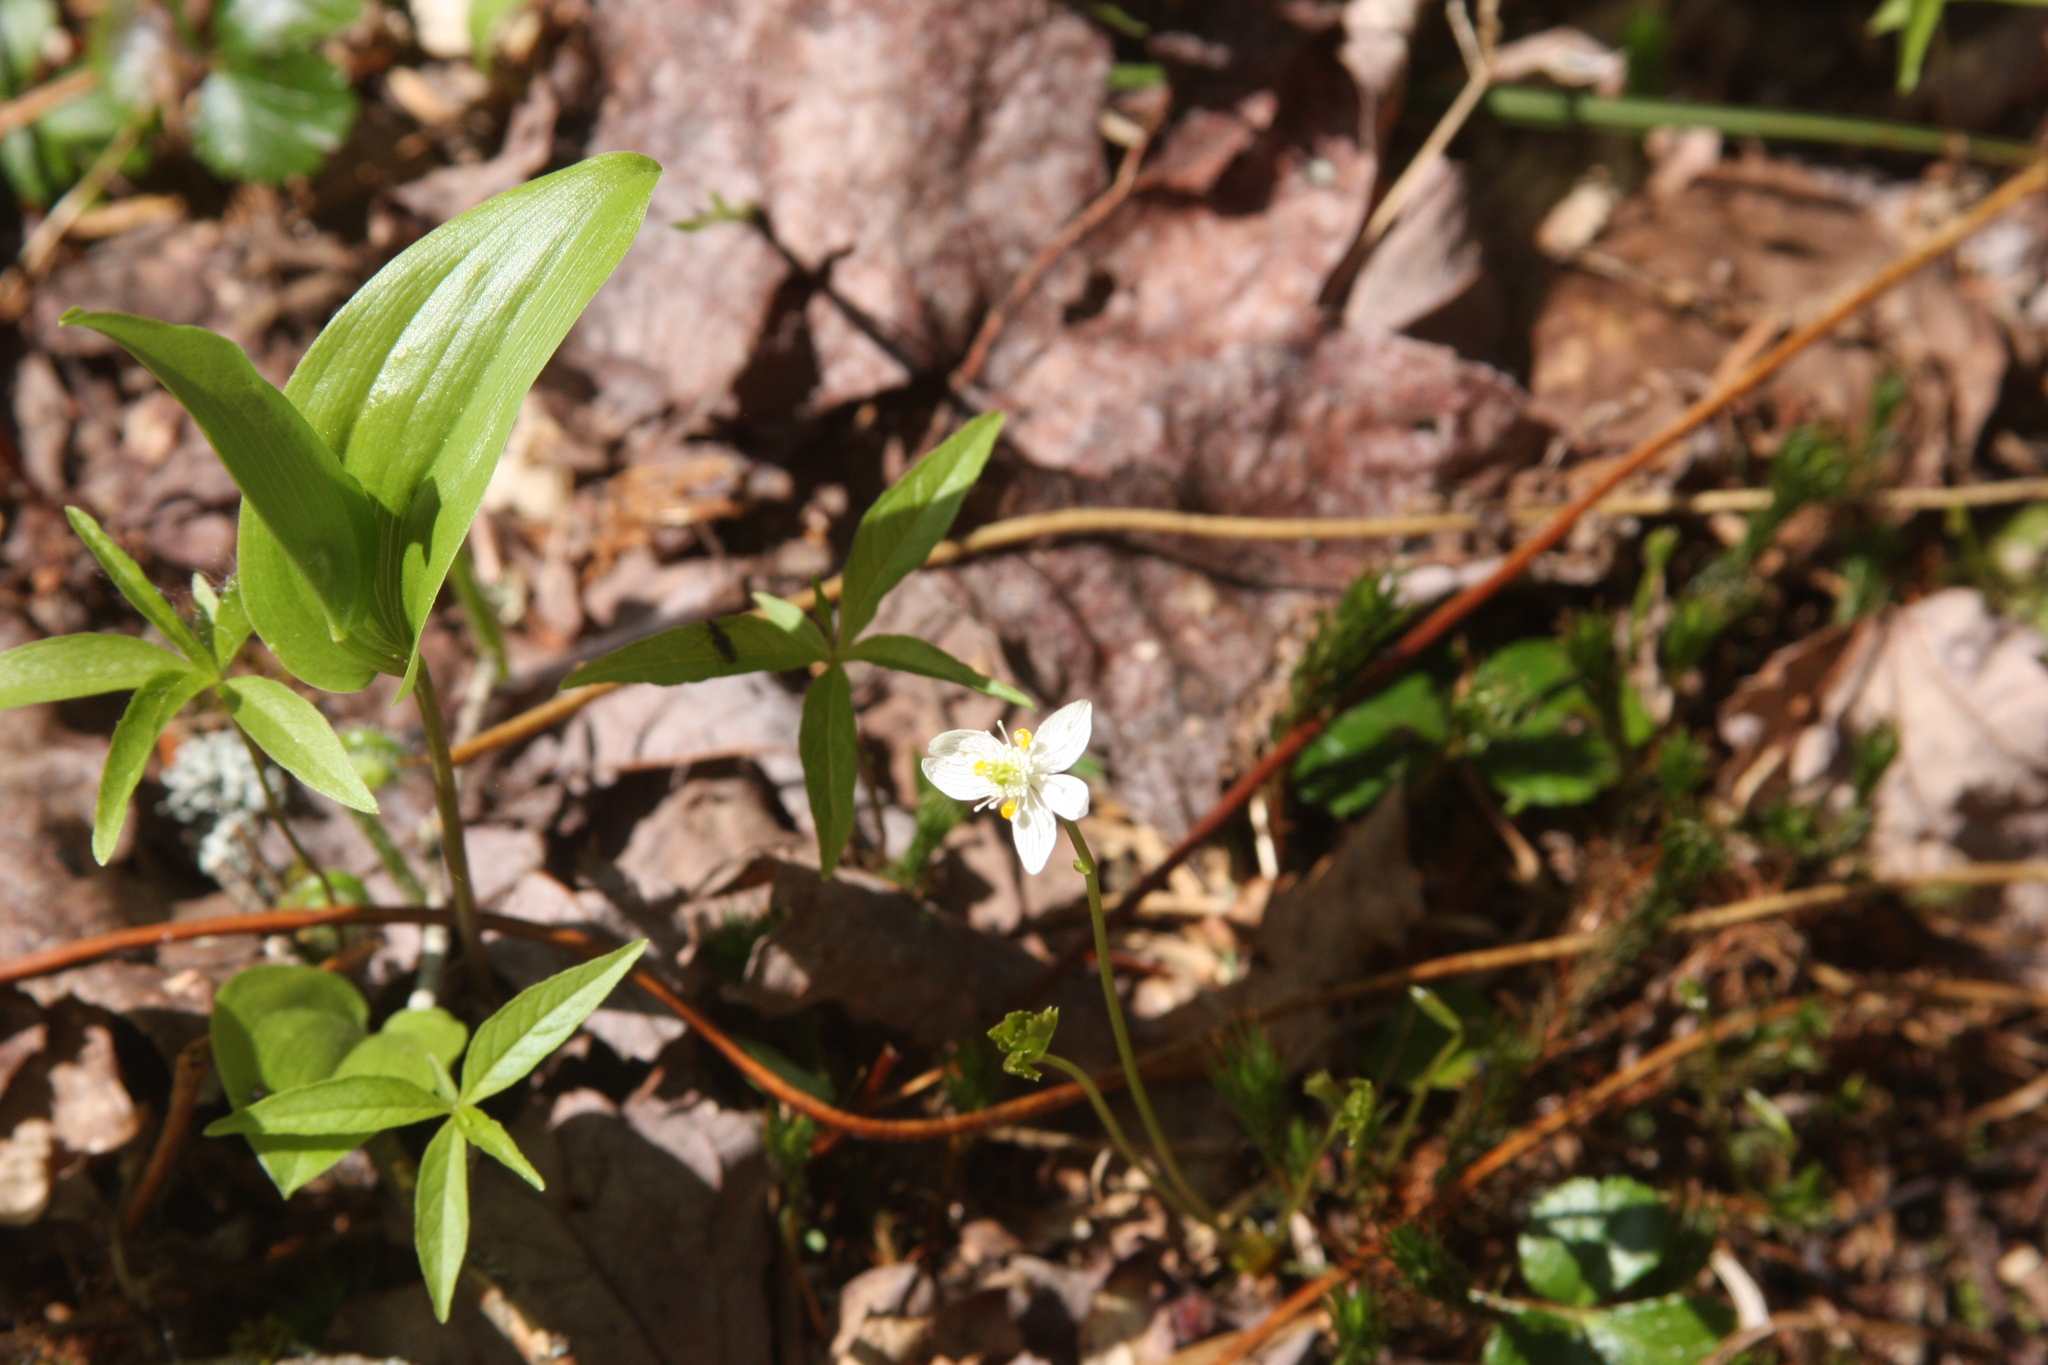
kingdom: Plantae
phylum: Tracheophyta
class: Magnoliopsida
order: Ranunculales
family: Ranunculaceae
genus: Coptis
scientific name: Coptis trifolia
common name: Canker-root
